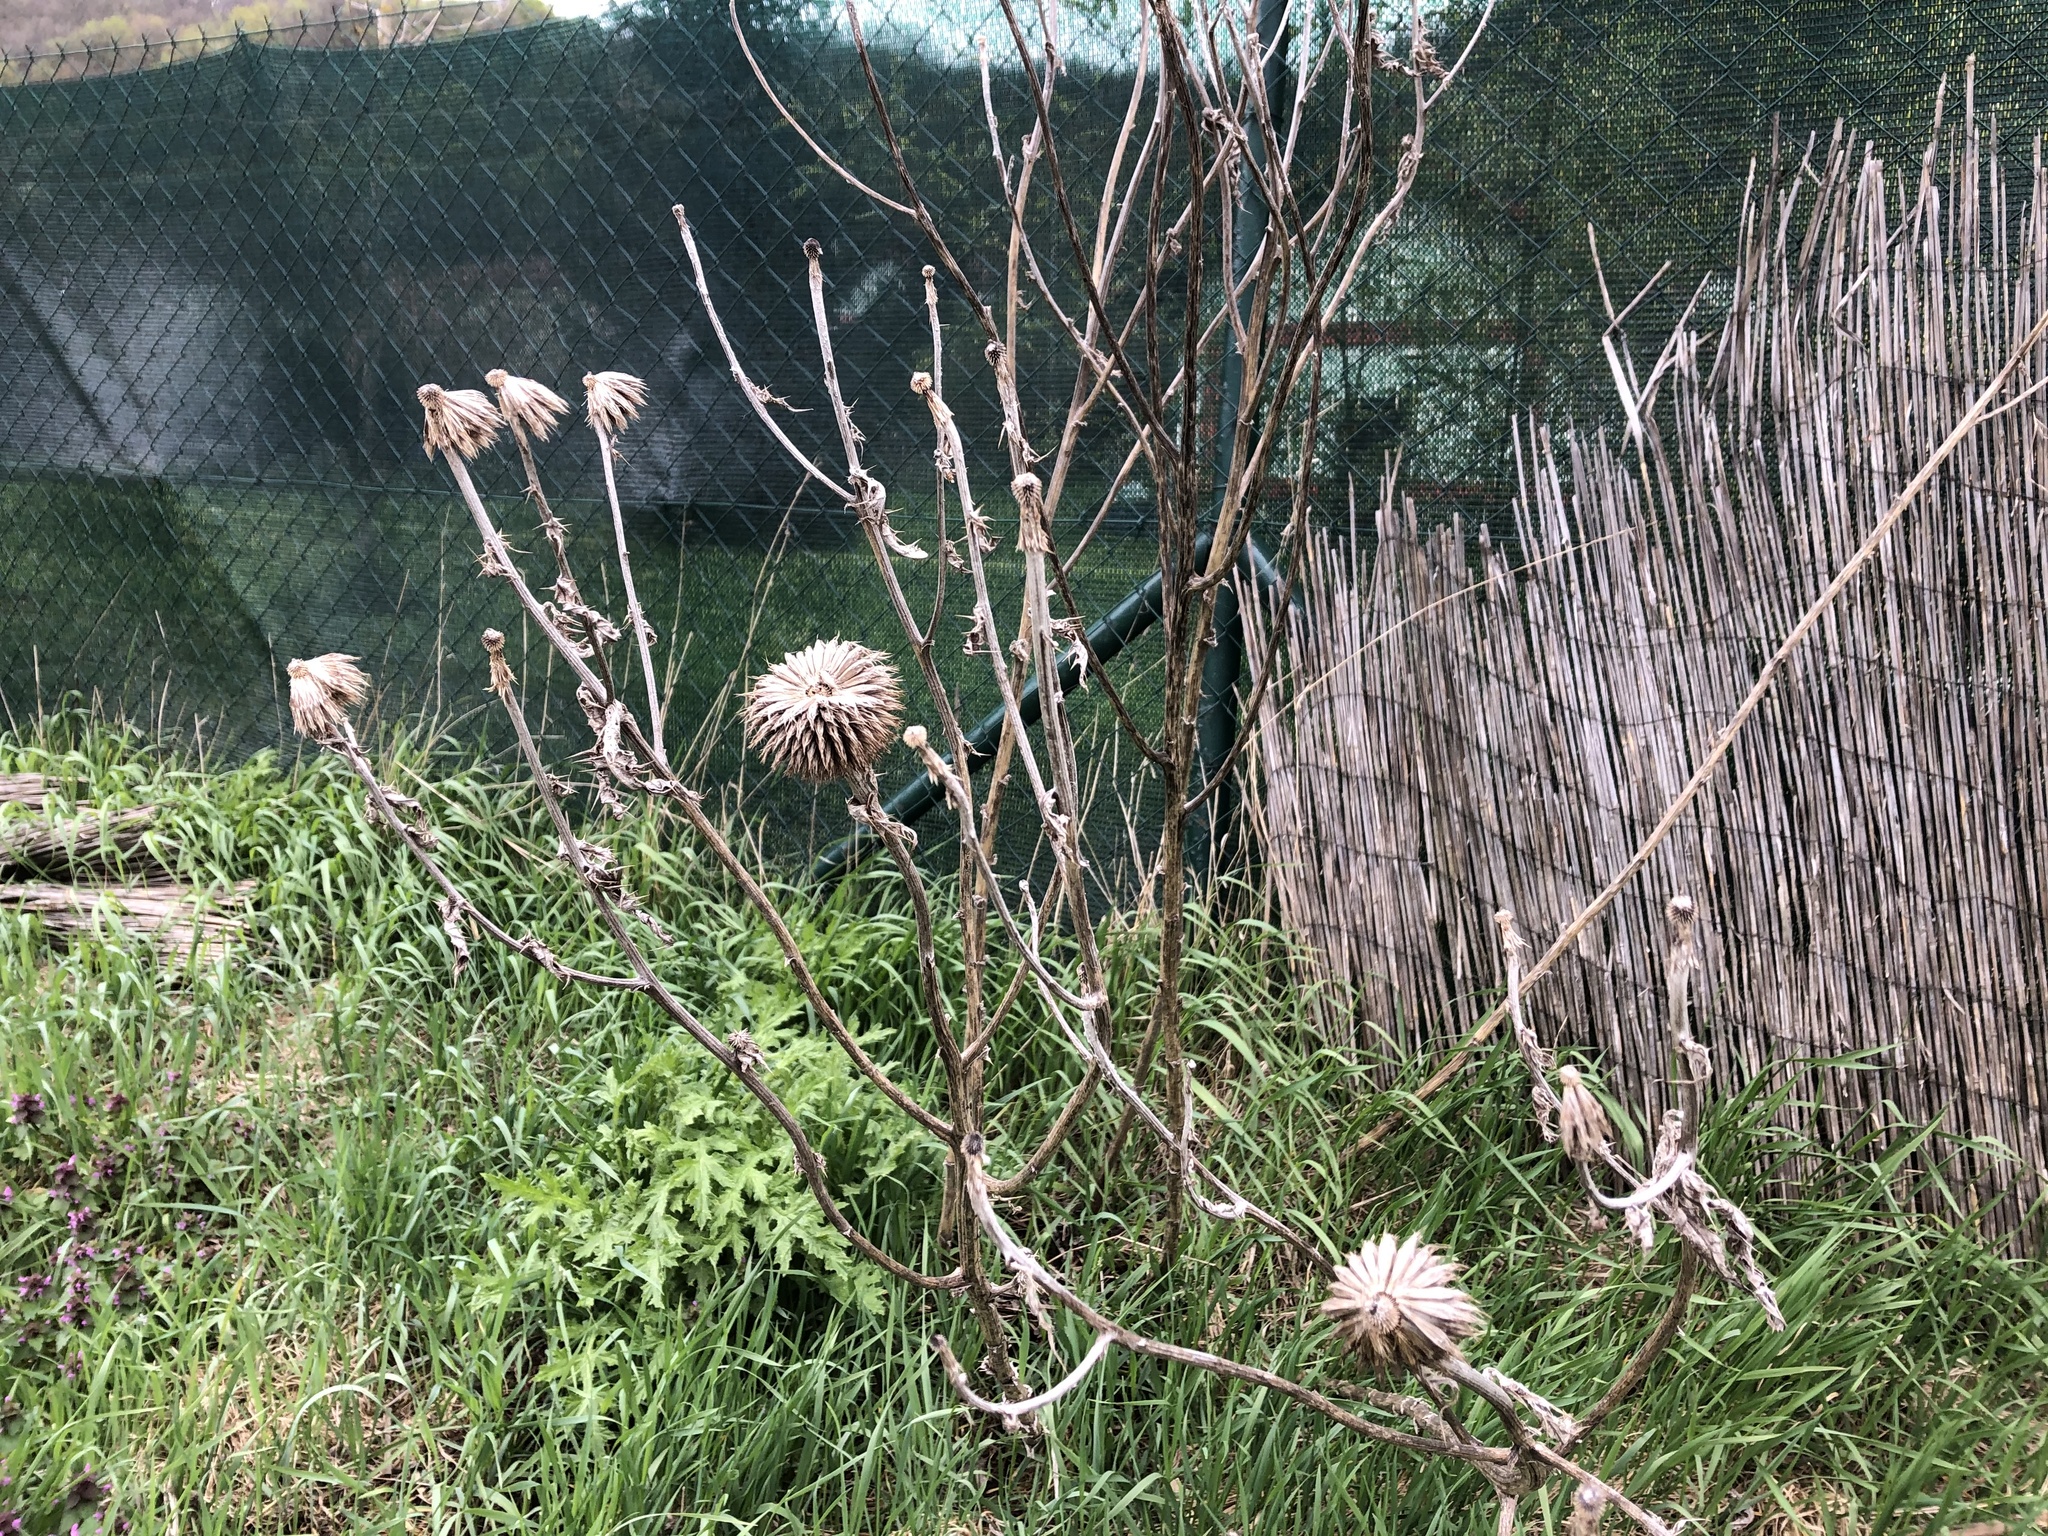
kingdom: Plantae
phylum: Tracheophyta
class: Magnoliopsida
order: Asterales
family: Asteraceae
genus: Echinops
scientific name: Echinops sphaerocephalus
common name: Glandular globe-thistle
